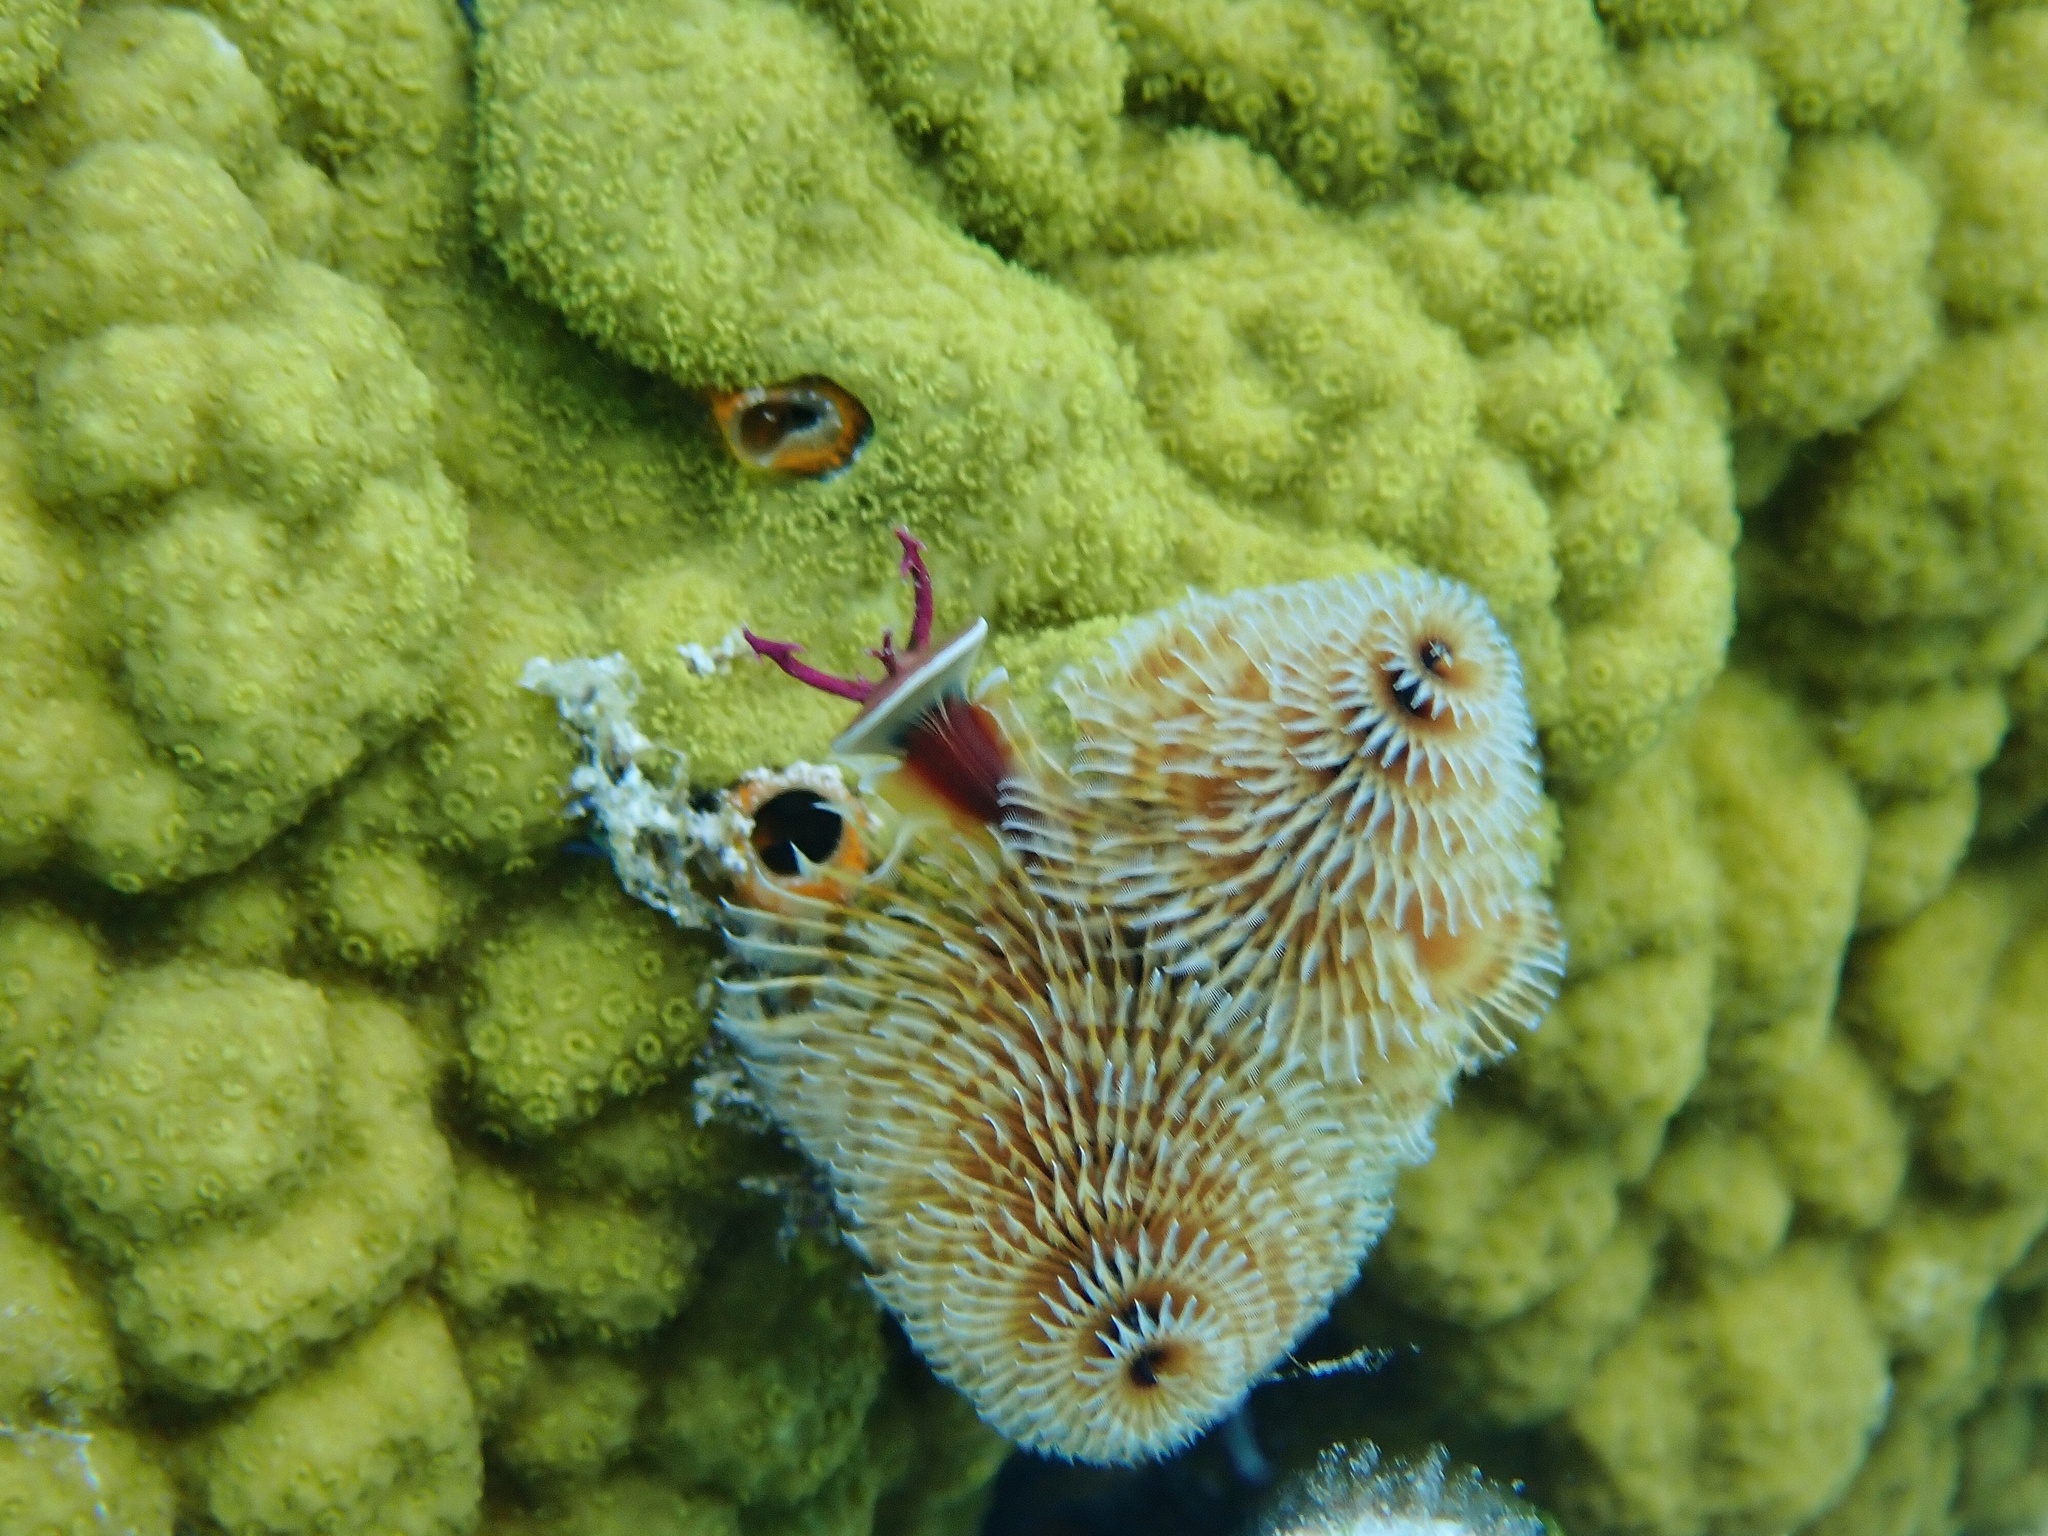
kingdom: Animalia
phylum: Annelida
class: Polychaeta
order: Sabellida
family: Serpulidae
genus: Spirobranchus
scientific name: Spirobranchus giganteus
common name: Christmas tree worm
